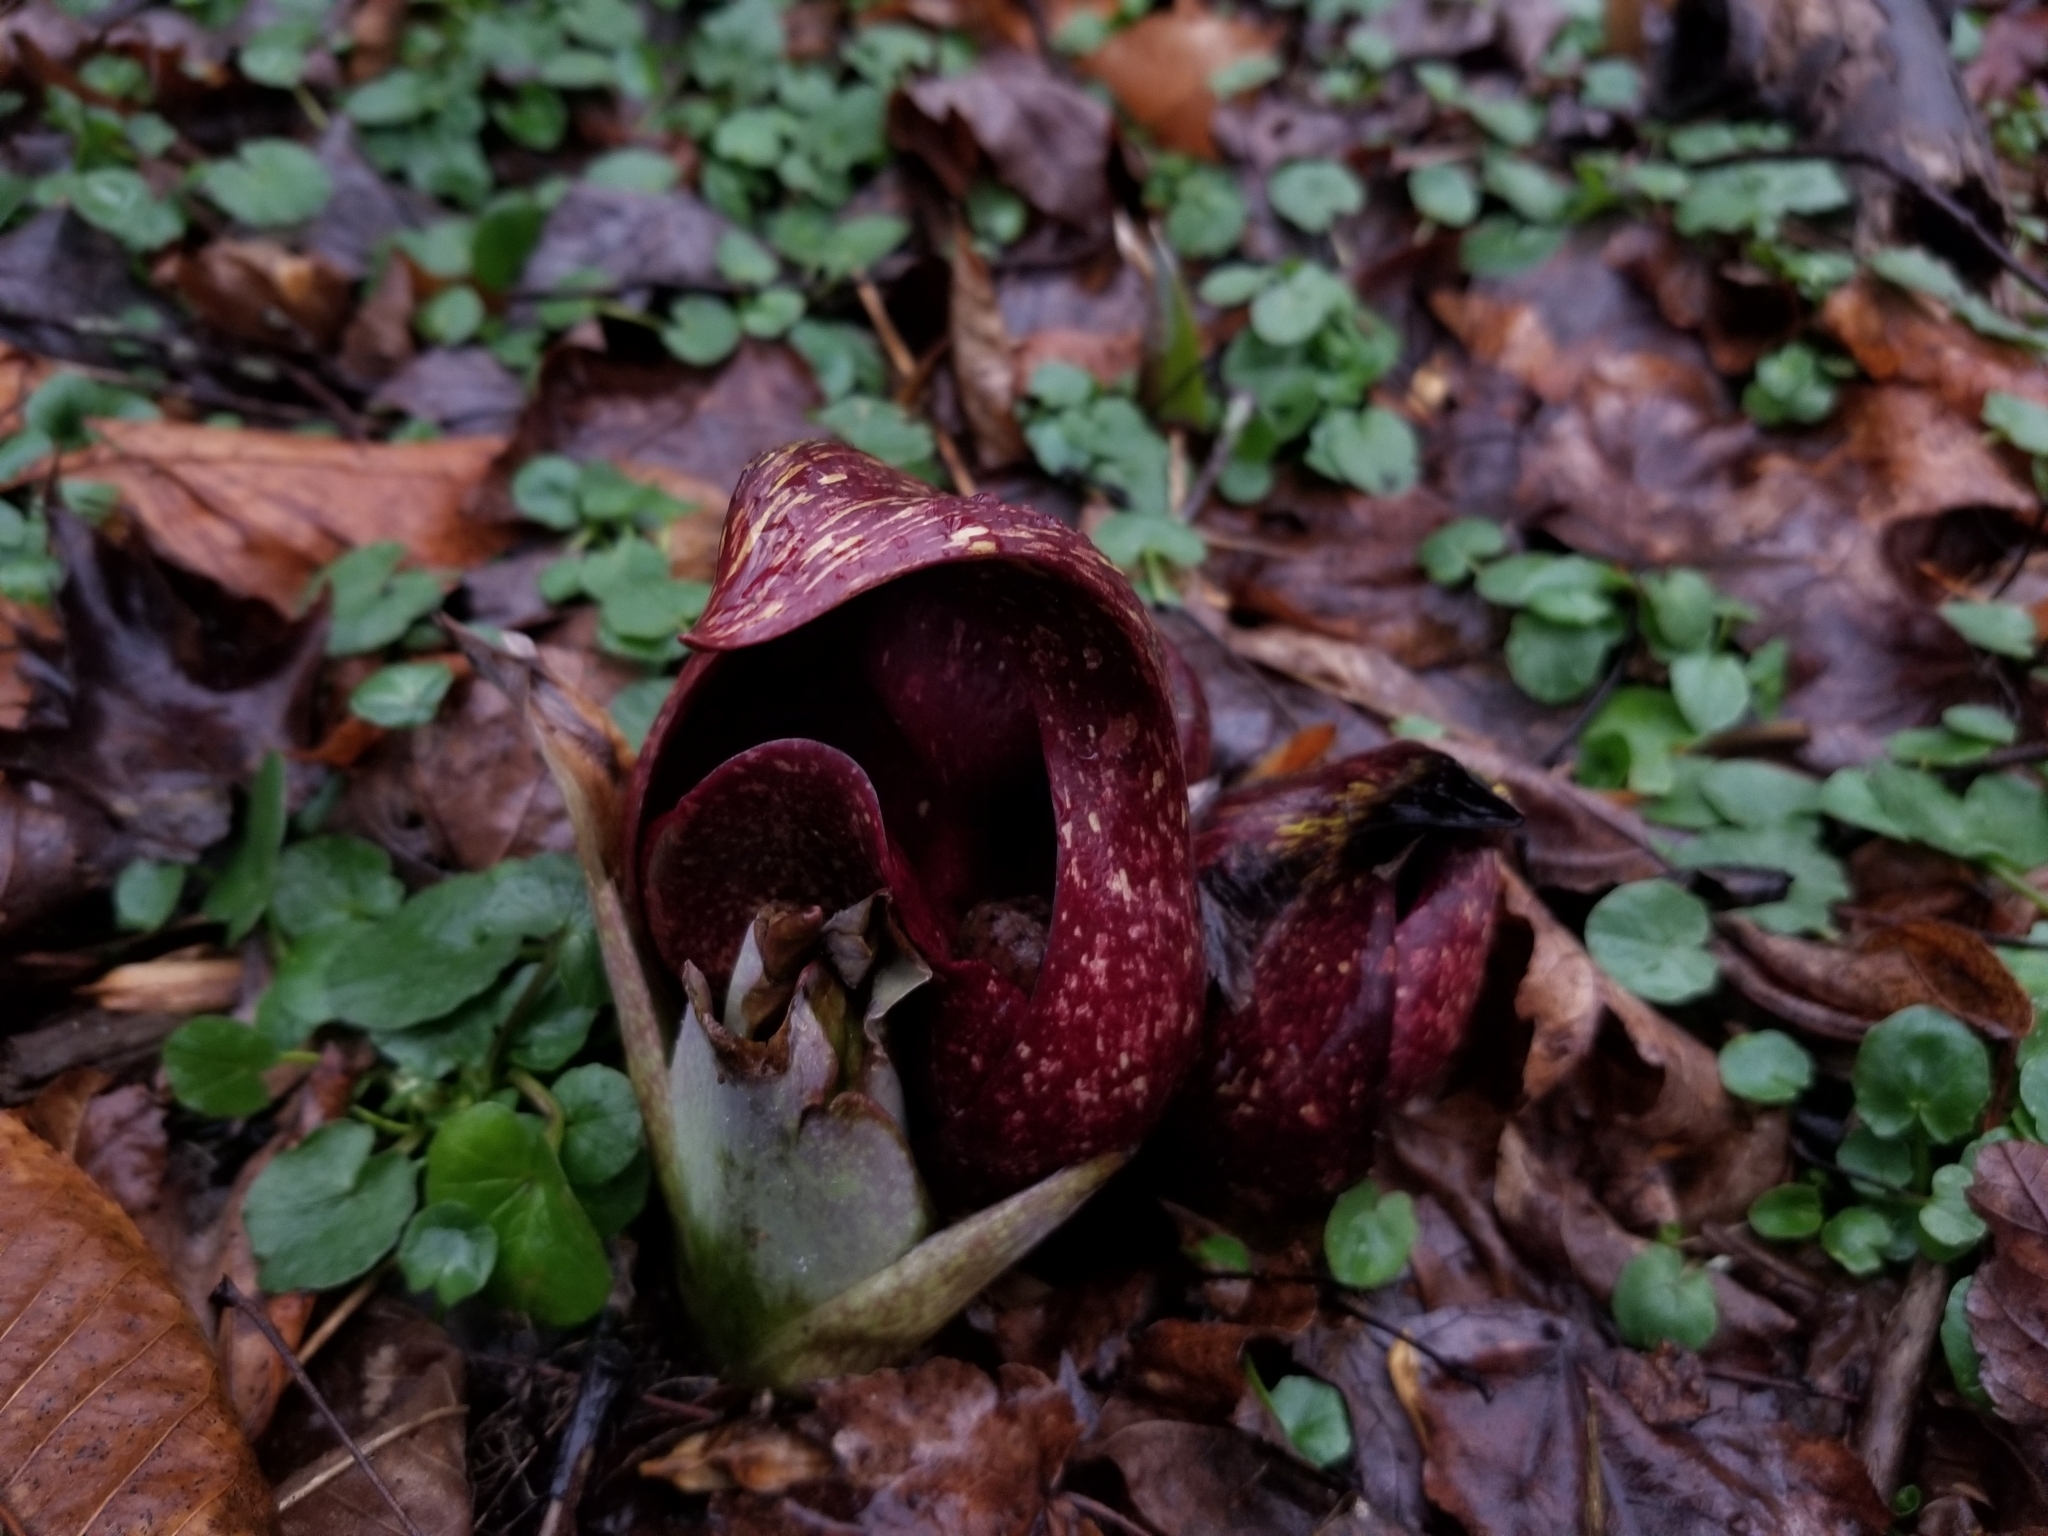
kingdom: Plantae
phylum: Tracheophyta
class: Liliopsida
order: Alismatales
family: Araceae
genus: Symplocarpus
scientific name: Symplocarpus foetidus
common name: Eastern skunk cabbage
